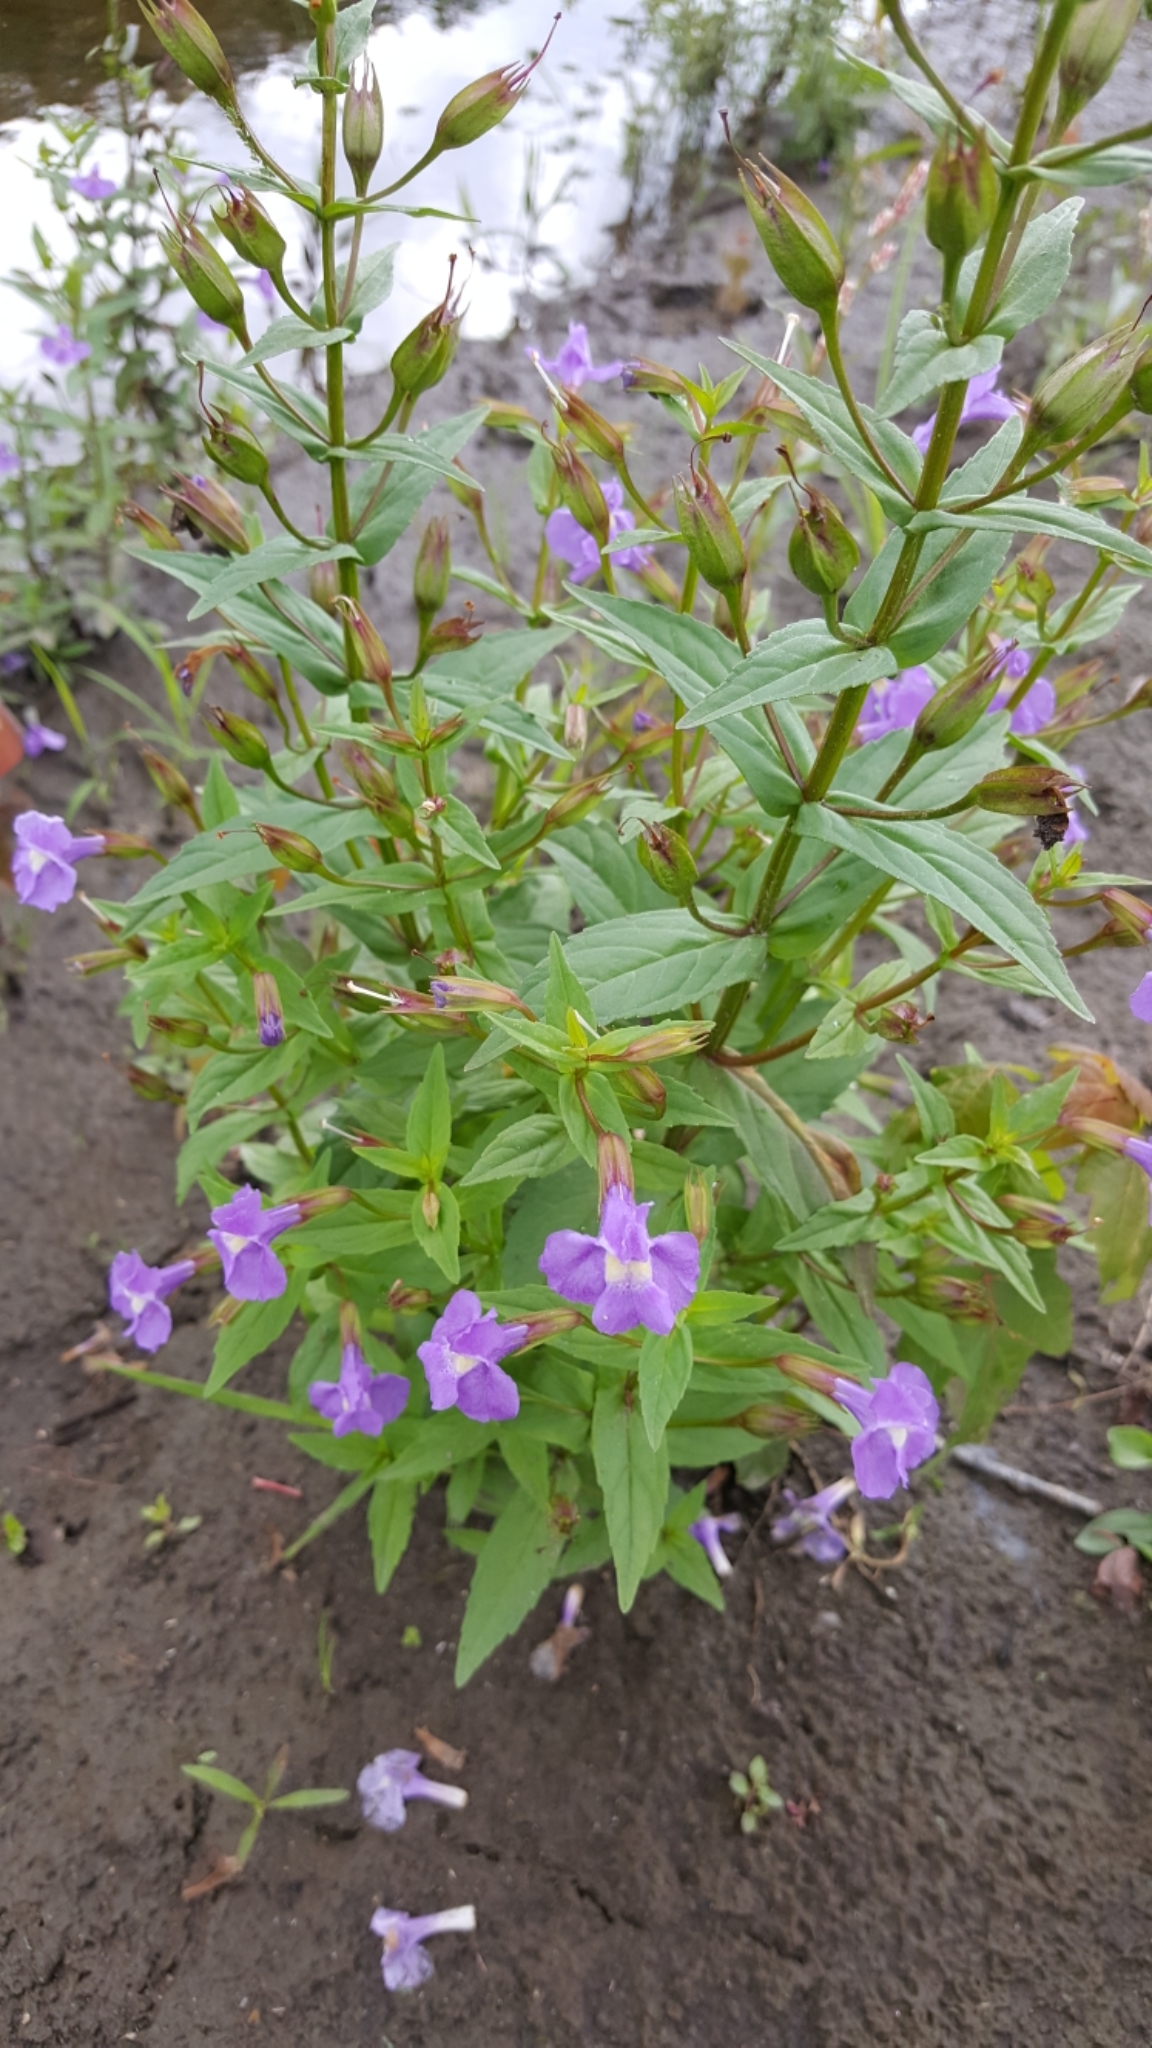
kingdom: Plantae
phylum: Tracheophyta
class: Magnoliopsida
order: Lamiales
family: Phrymaceae
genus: Mimulus
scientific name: Mimulus ringens
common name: Allegheny monkeyflower
